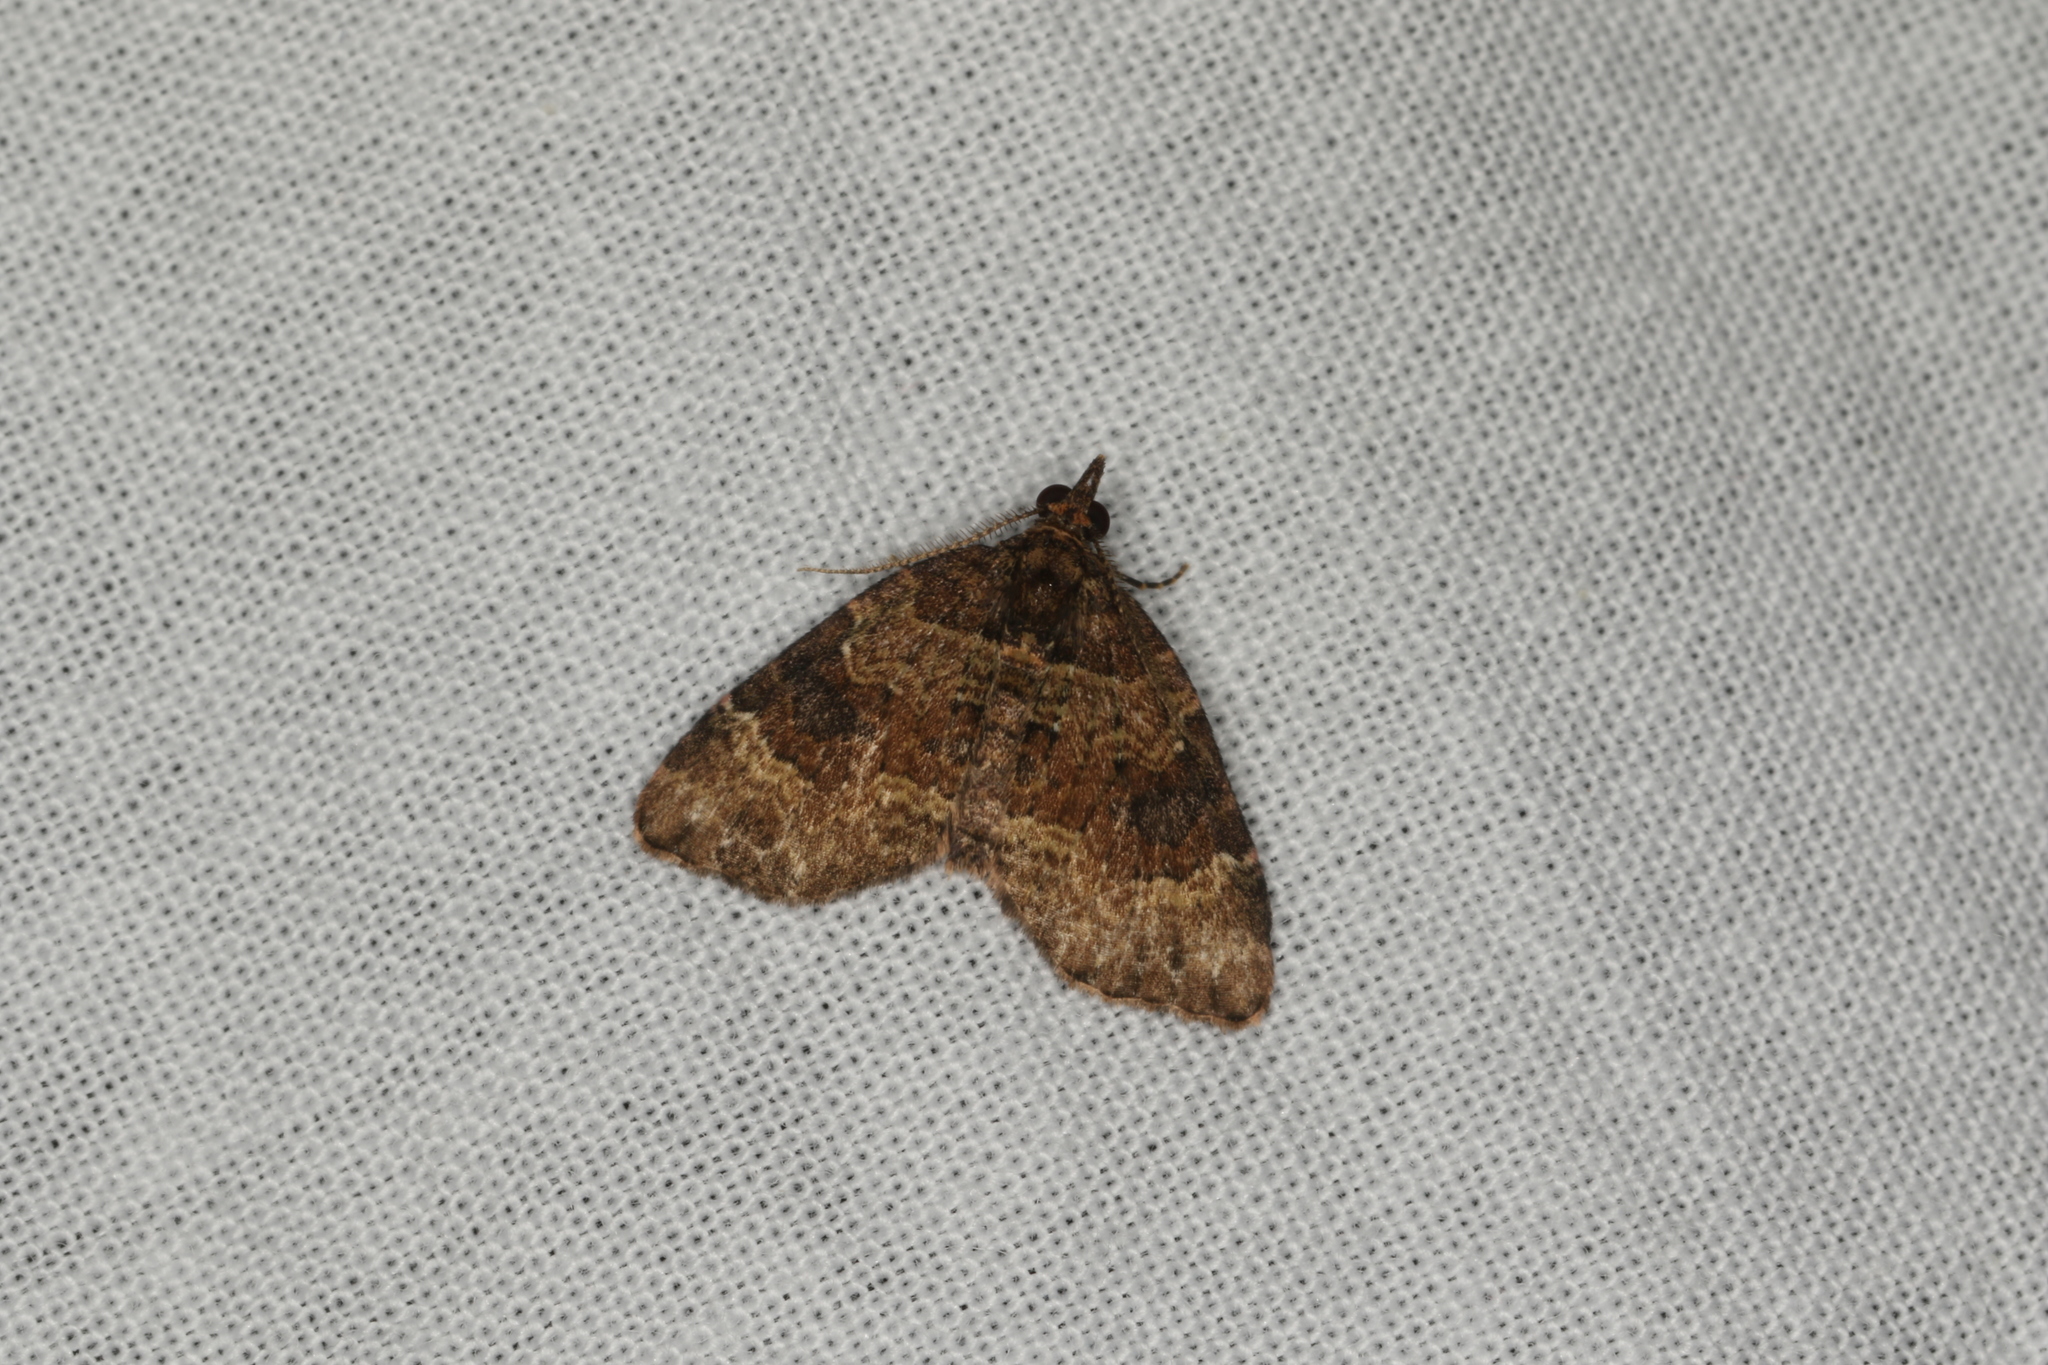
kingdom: Animalia
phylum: Arthropoda
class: Insecta
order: Lepidoptera
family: Geometridae
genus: Chrysolarentia
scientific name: Chrysolarentia pantoea
